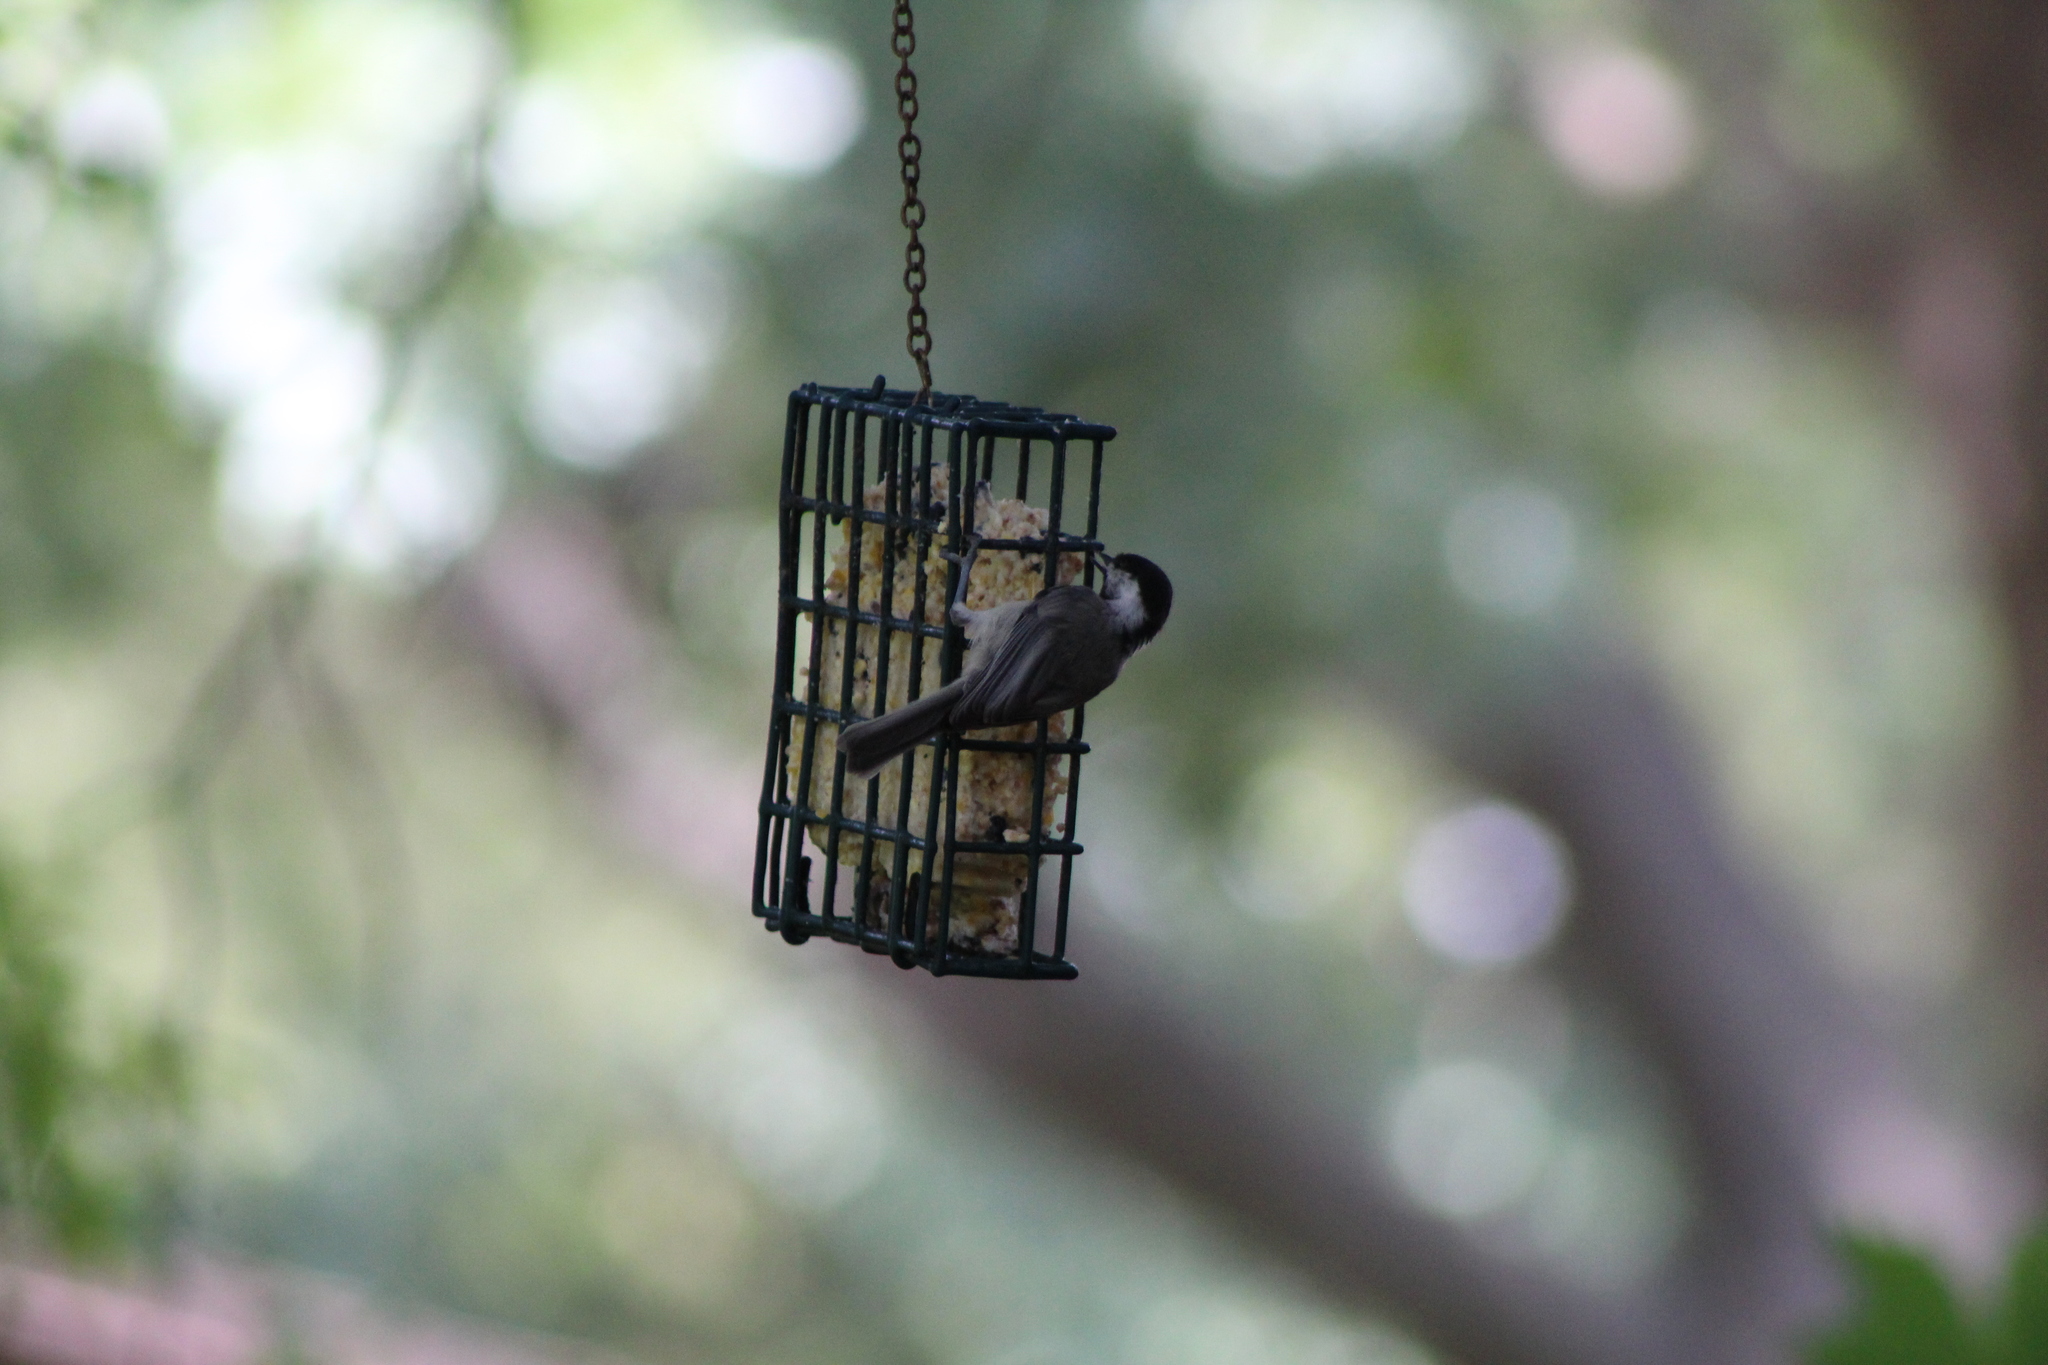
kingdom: Animalia
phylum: Chordata
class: Aves
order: Passeriformes
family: Paridae
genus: Poecile
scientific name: Poecile carolinensis
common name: Carolina chickadee
